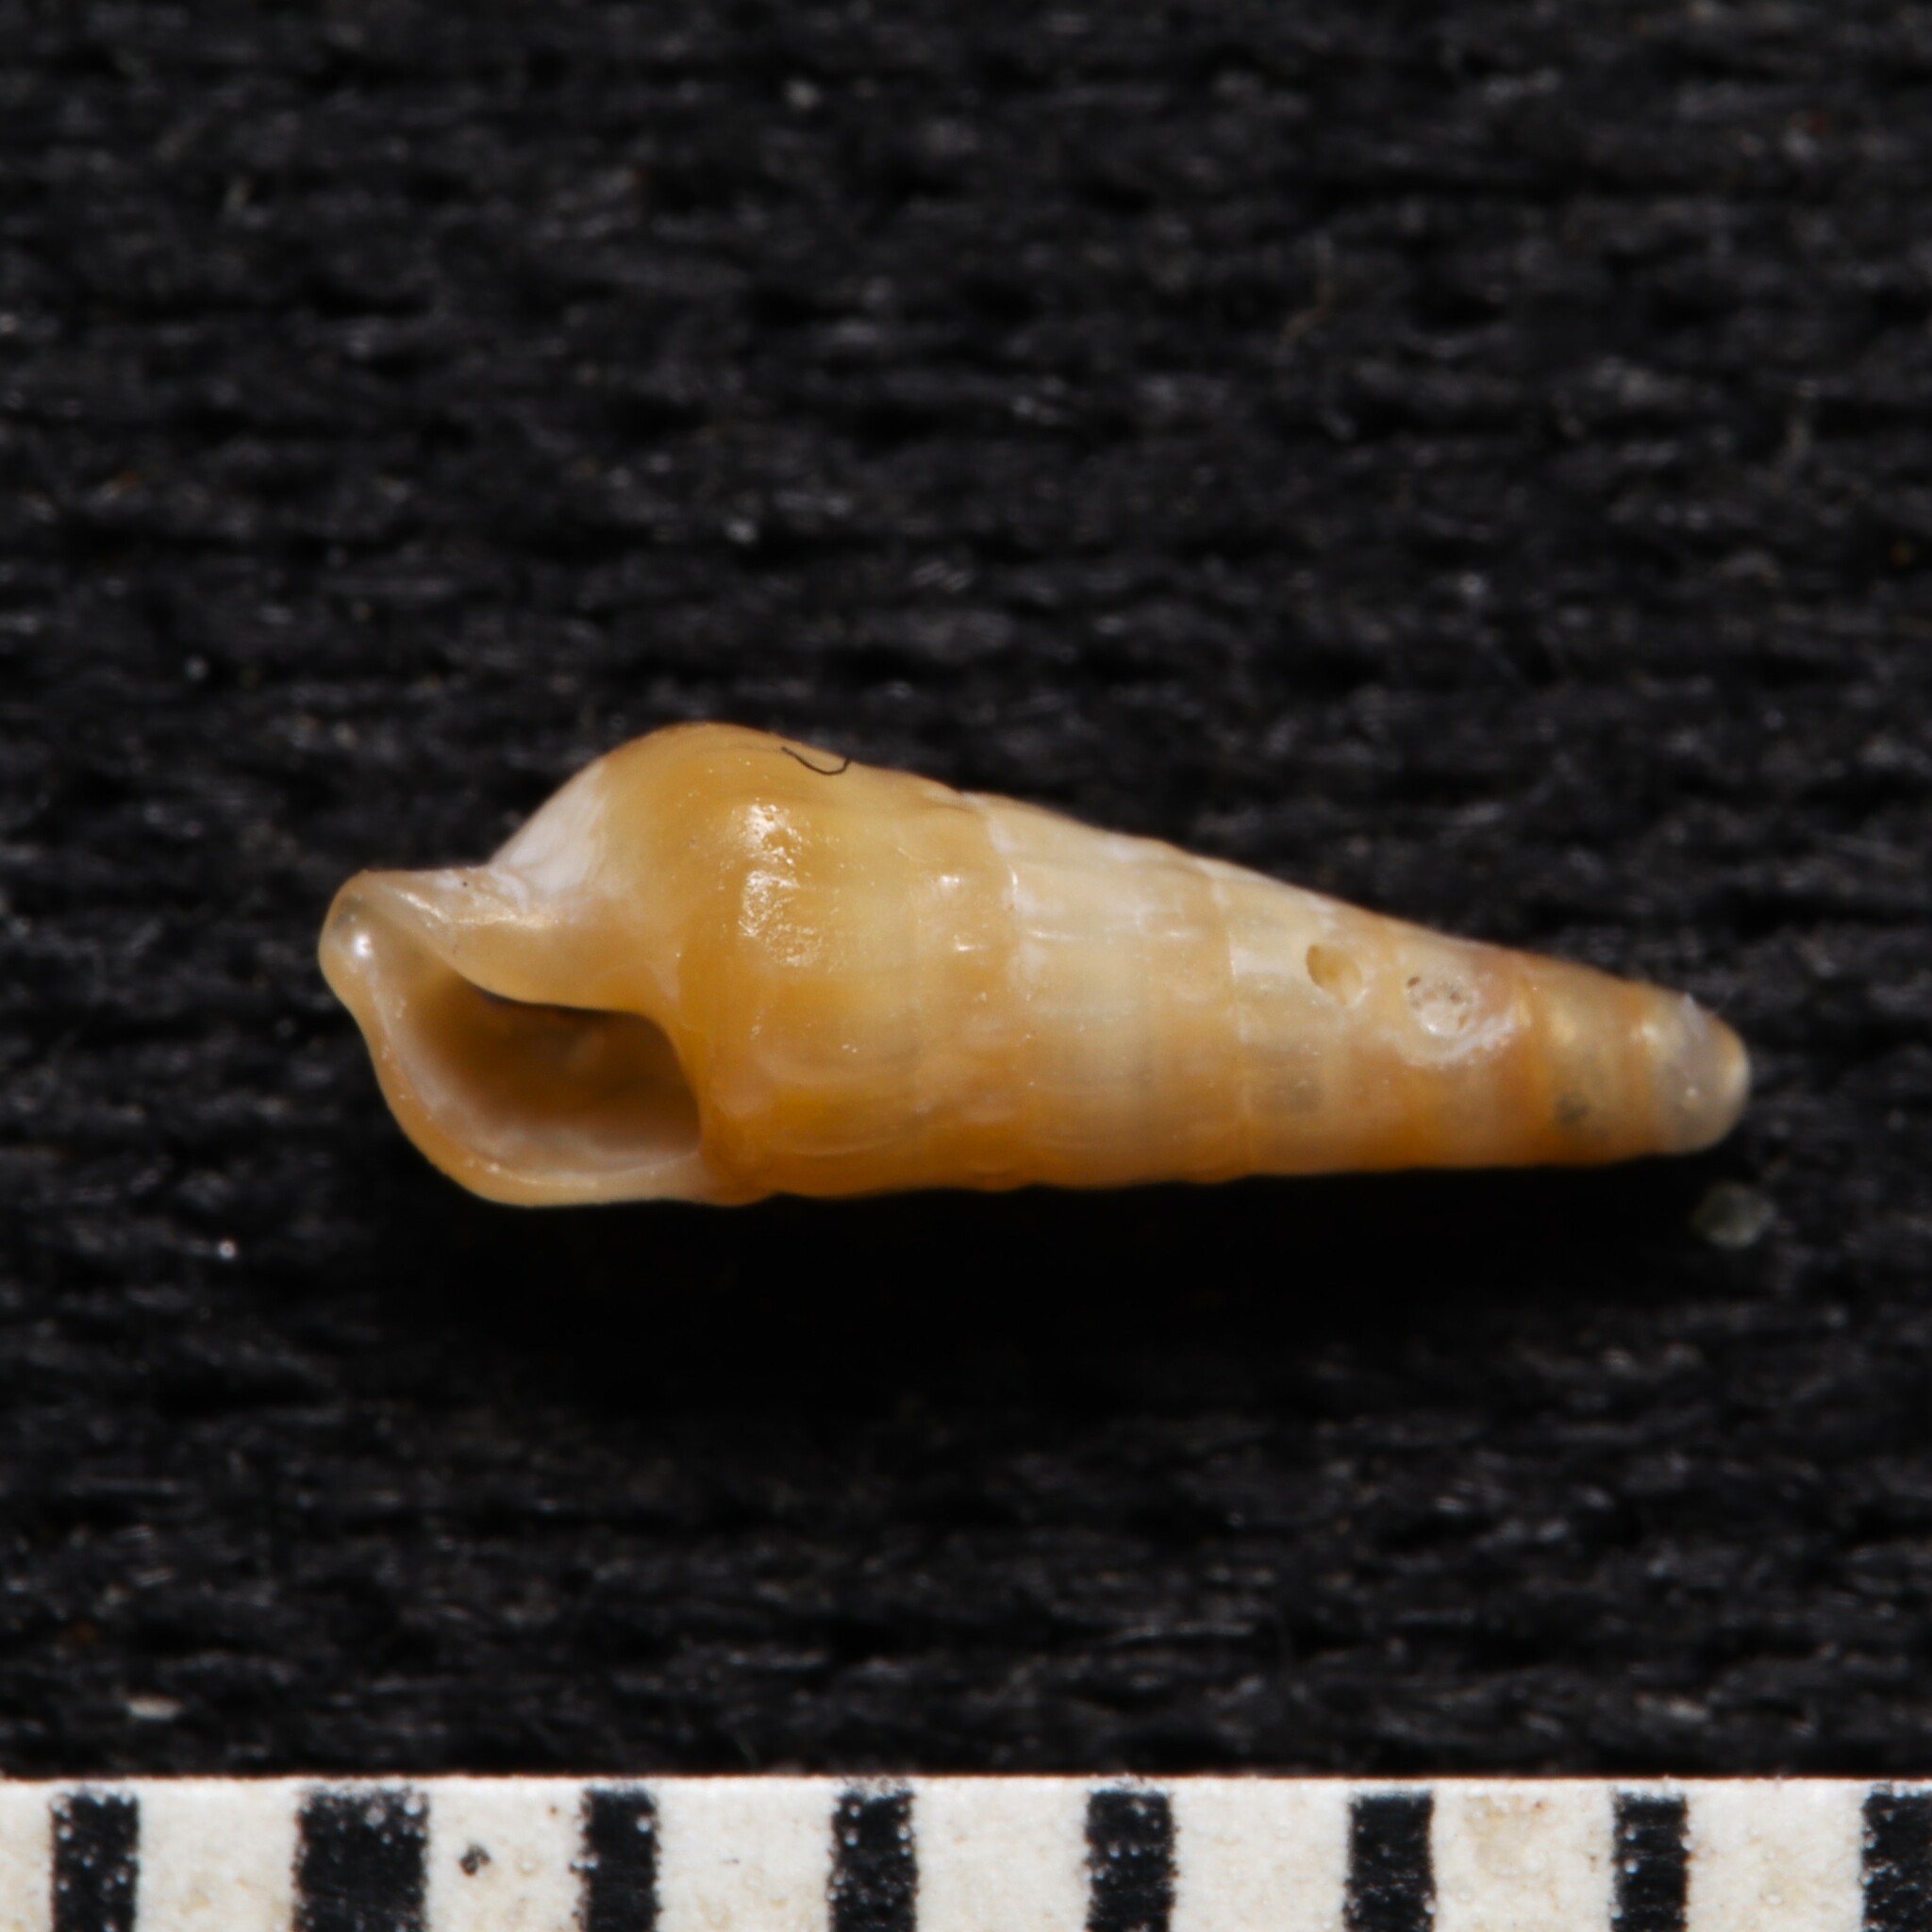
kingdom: Animalia
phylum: Mollusca
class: Gastropoda
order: Neogastropoda
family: Terebridae
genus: Neoterebra
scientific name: Neoterebra dislocata
